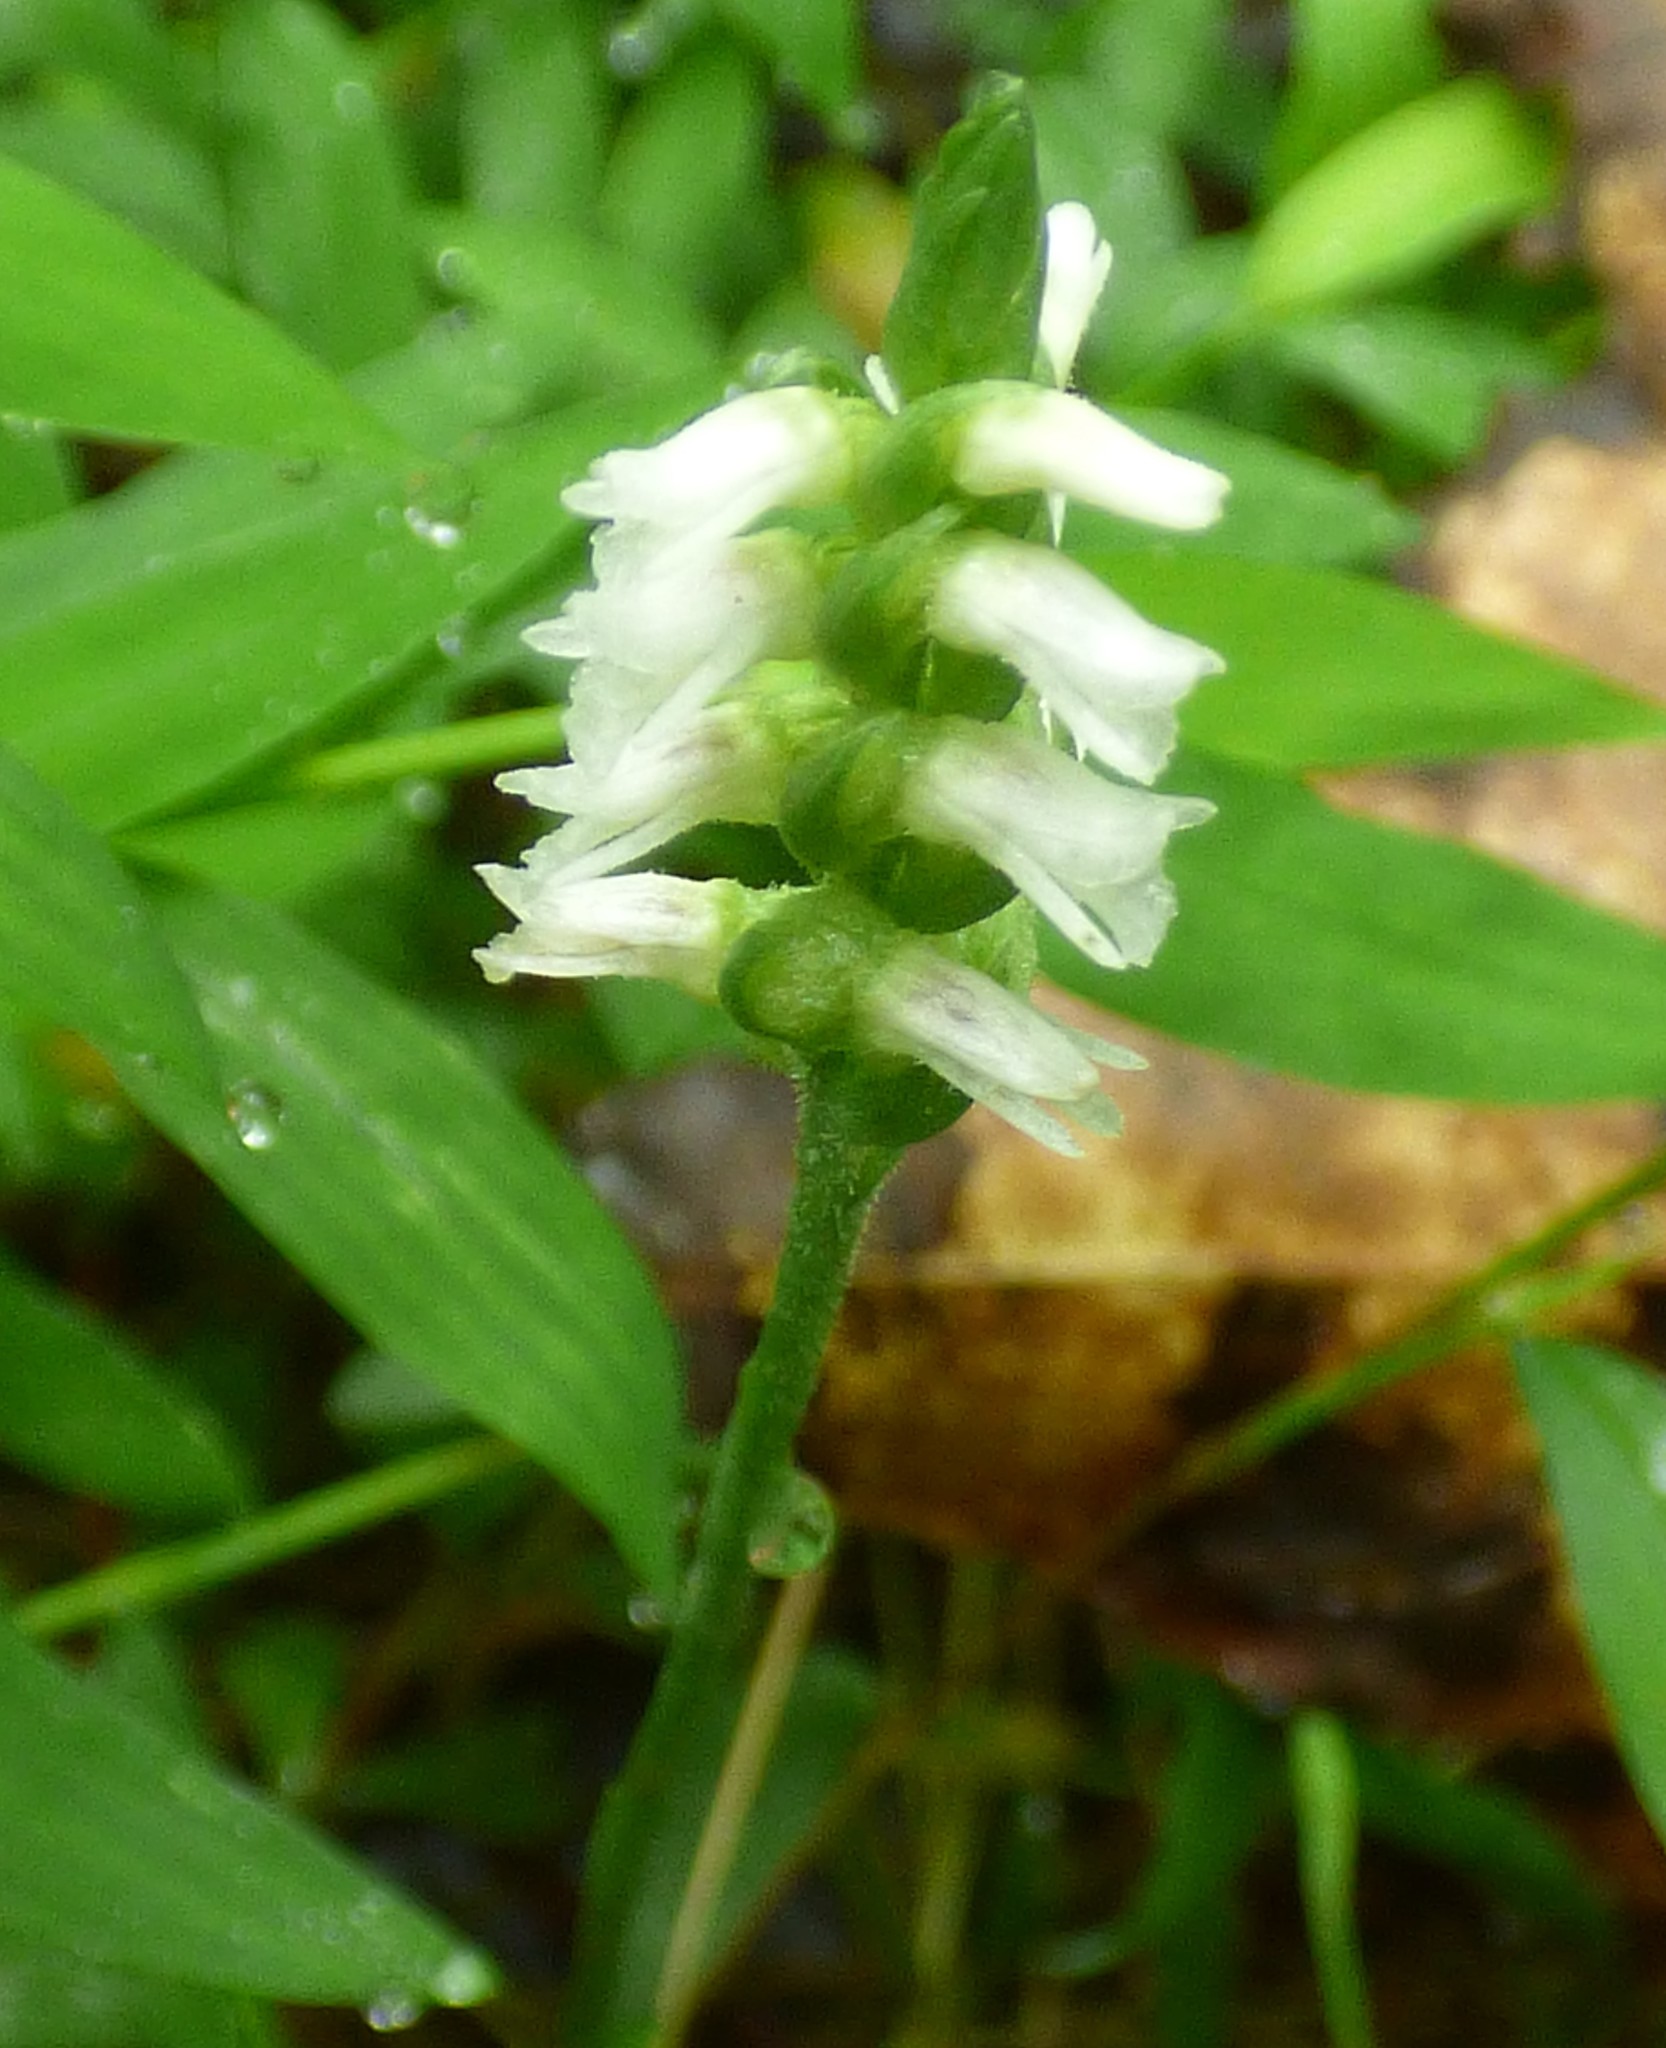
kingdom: Plantae
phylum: Tracheophyta
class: Liliopsida
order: Asparagales
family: Orchidaceae
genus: Spiranthes
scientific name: Spiranthes ovalis
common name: October ladies'-tresses
